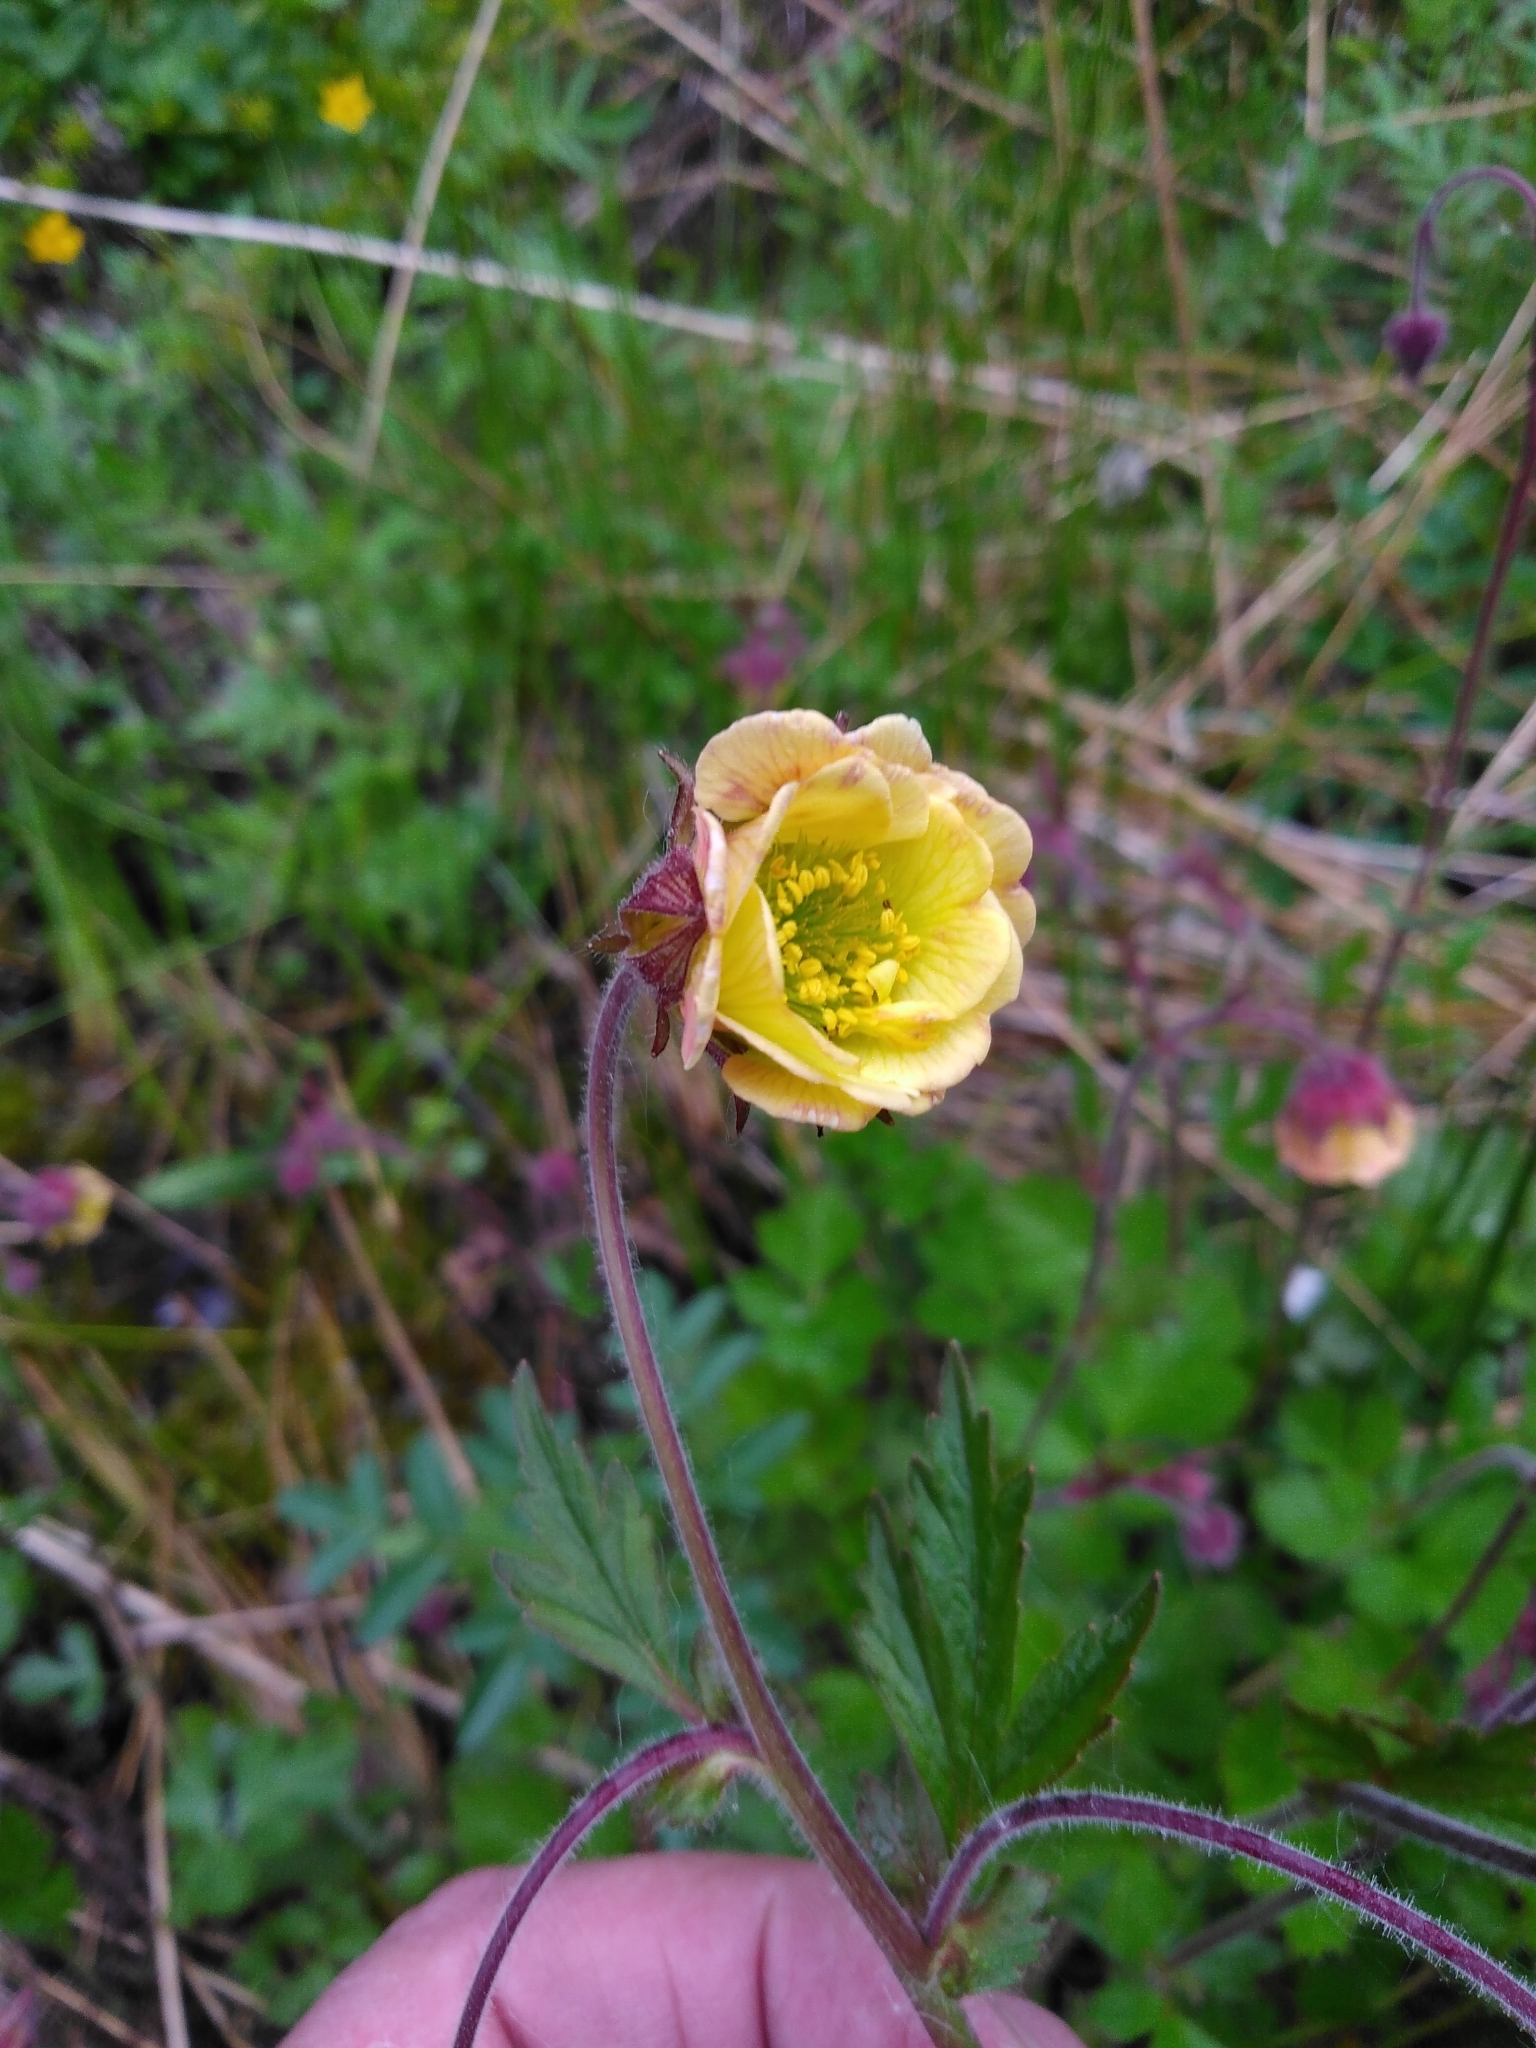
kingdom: Plantae
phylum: Tracheophyta
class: Magnoliopsida
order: Rosales
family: Rosaceae
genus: Geum
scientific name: Geum rivale
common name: Water avens
